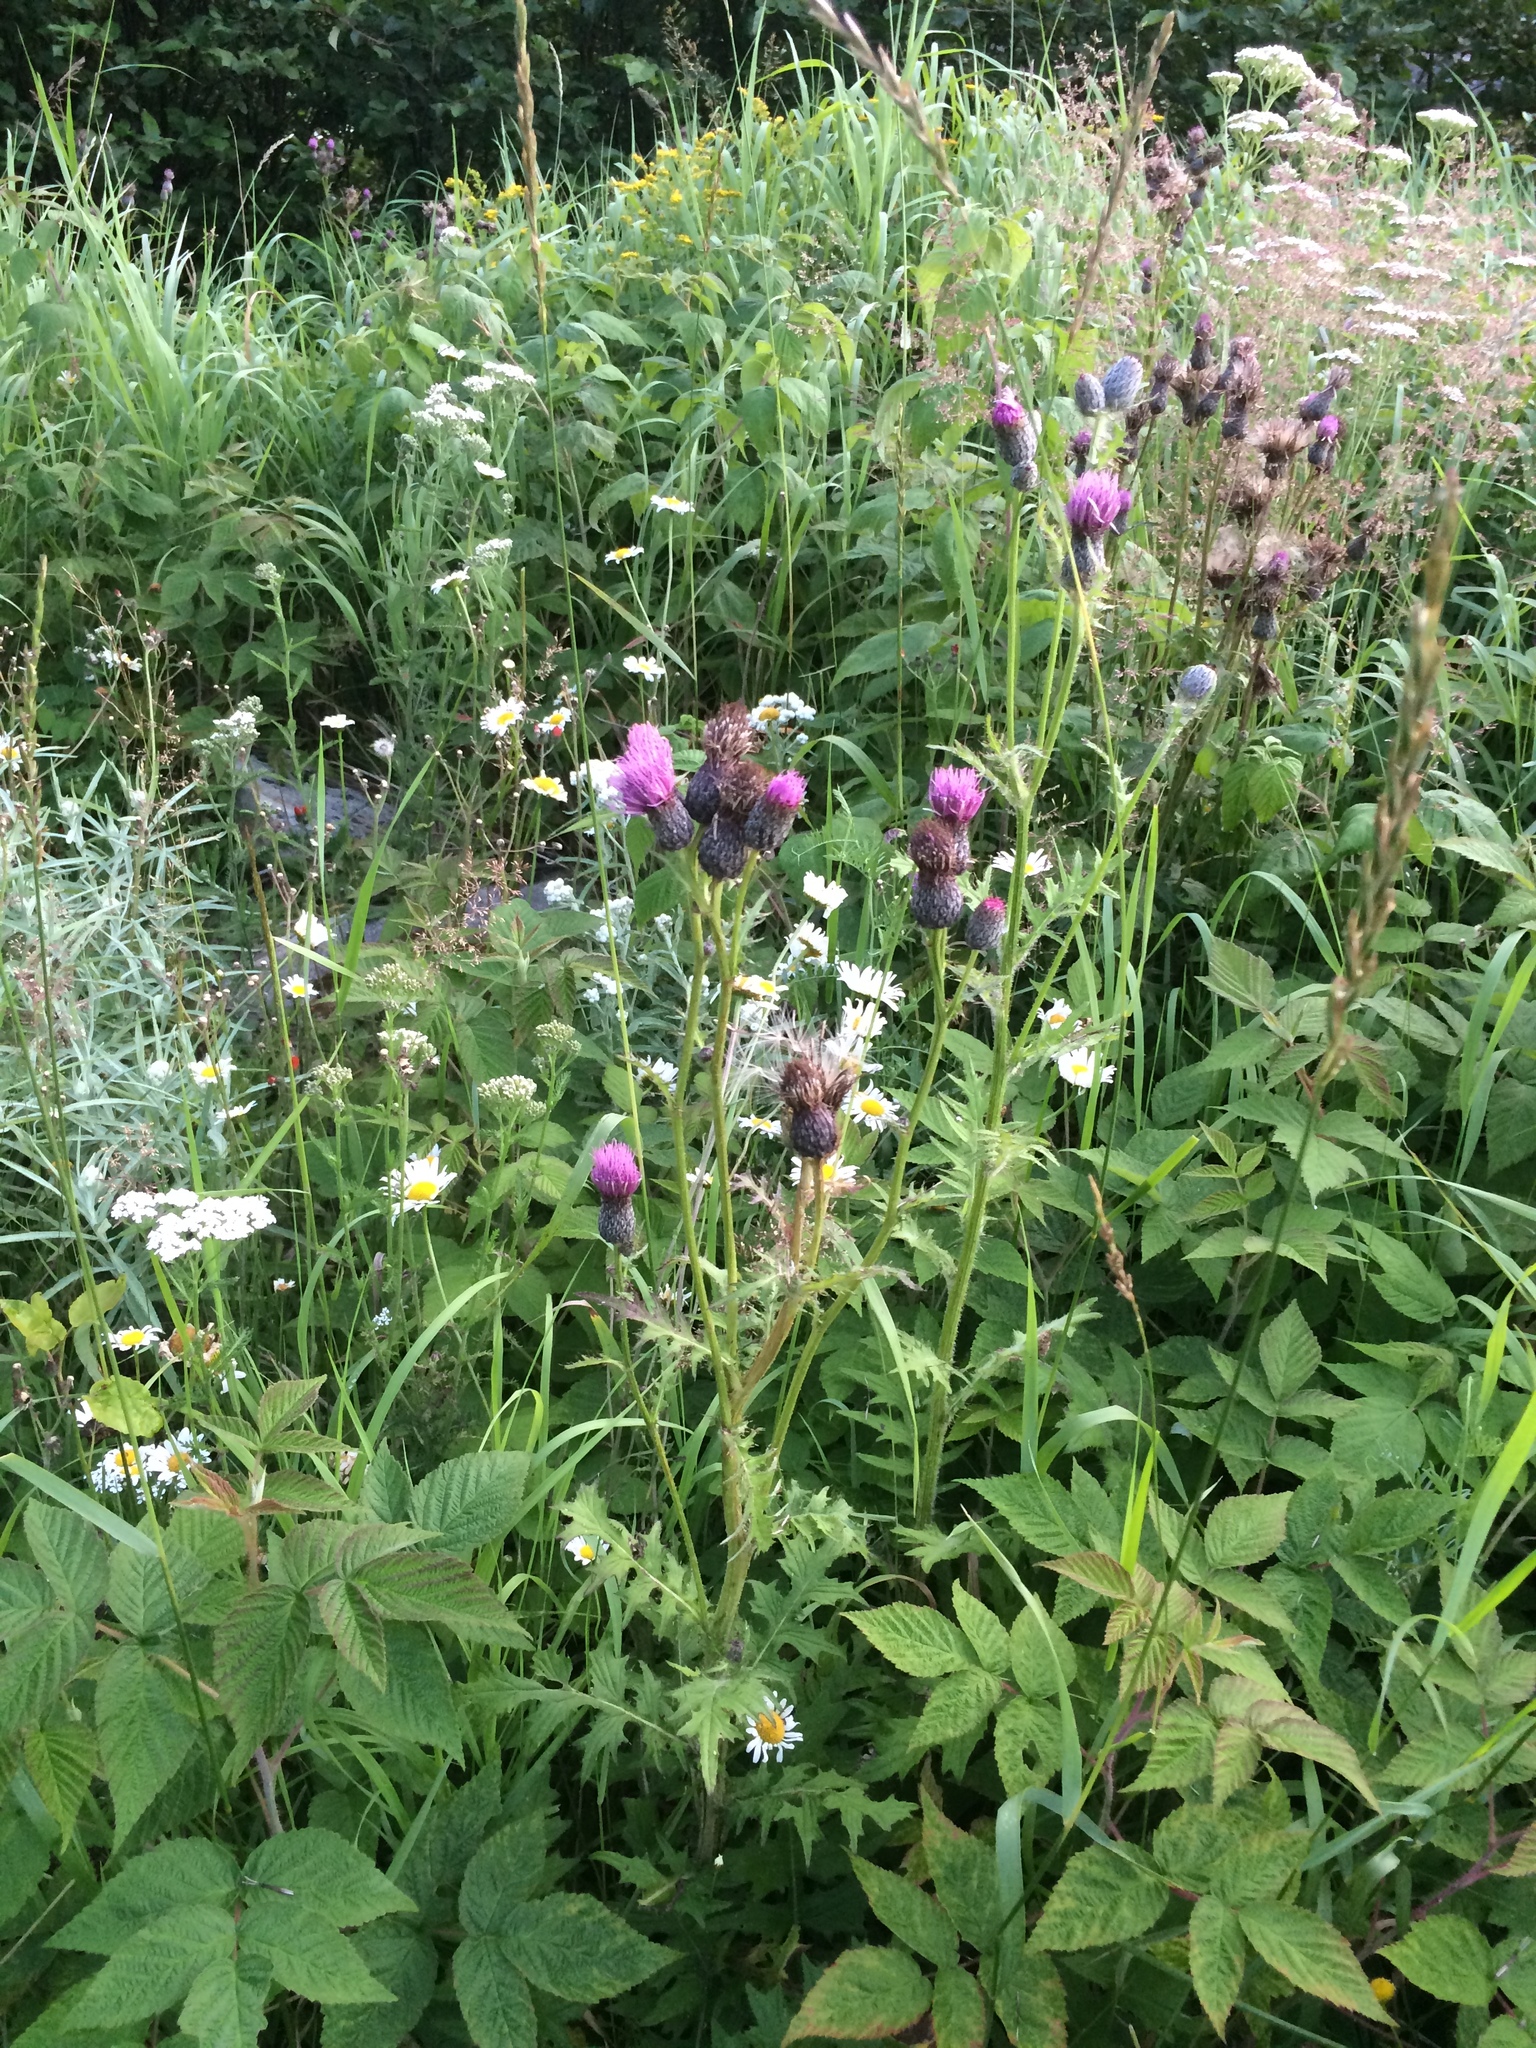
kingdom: Plantae
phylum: Tracheophyta
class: Magnoliopsida
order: Asterales
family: Asteraceae
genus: Cirsium
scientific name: Cirsium muticum
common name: Dunce-nettle
